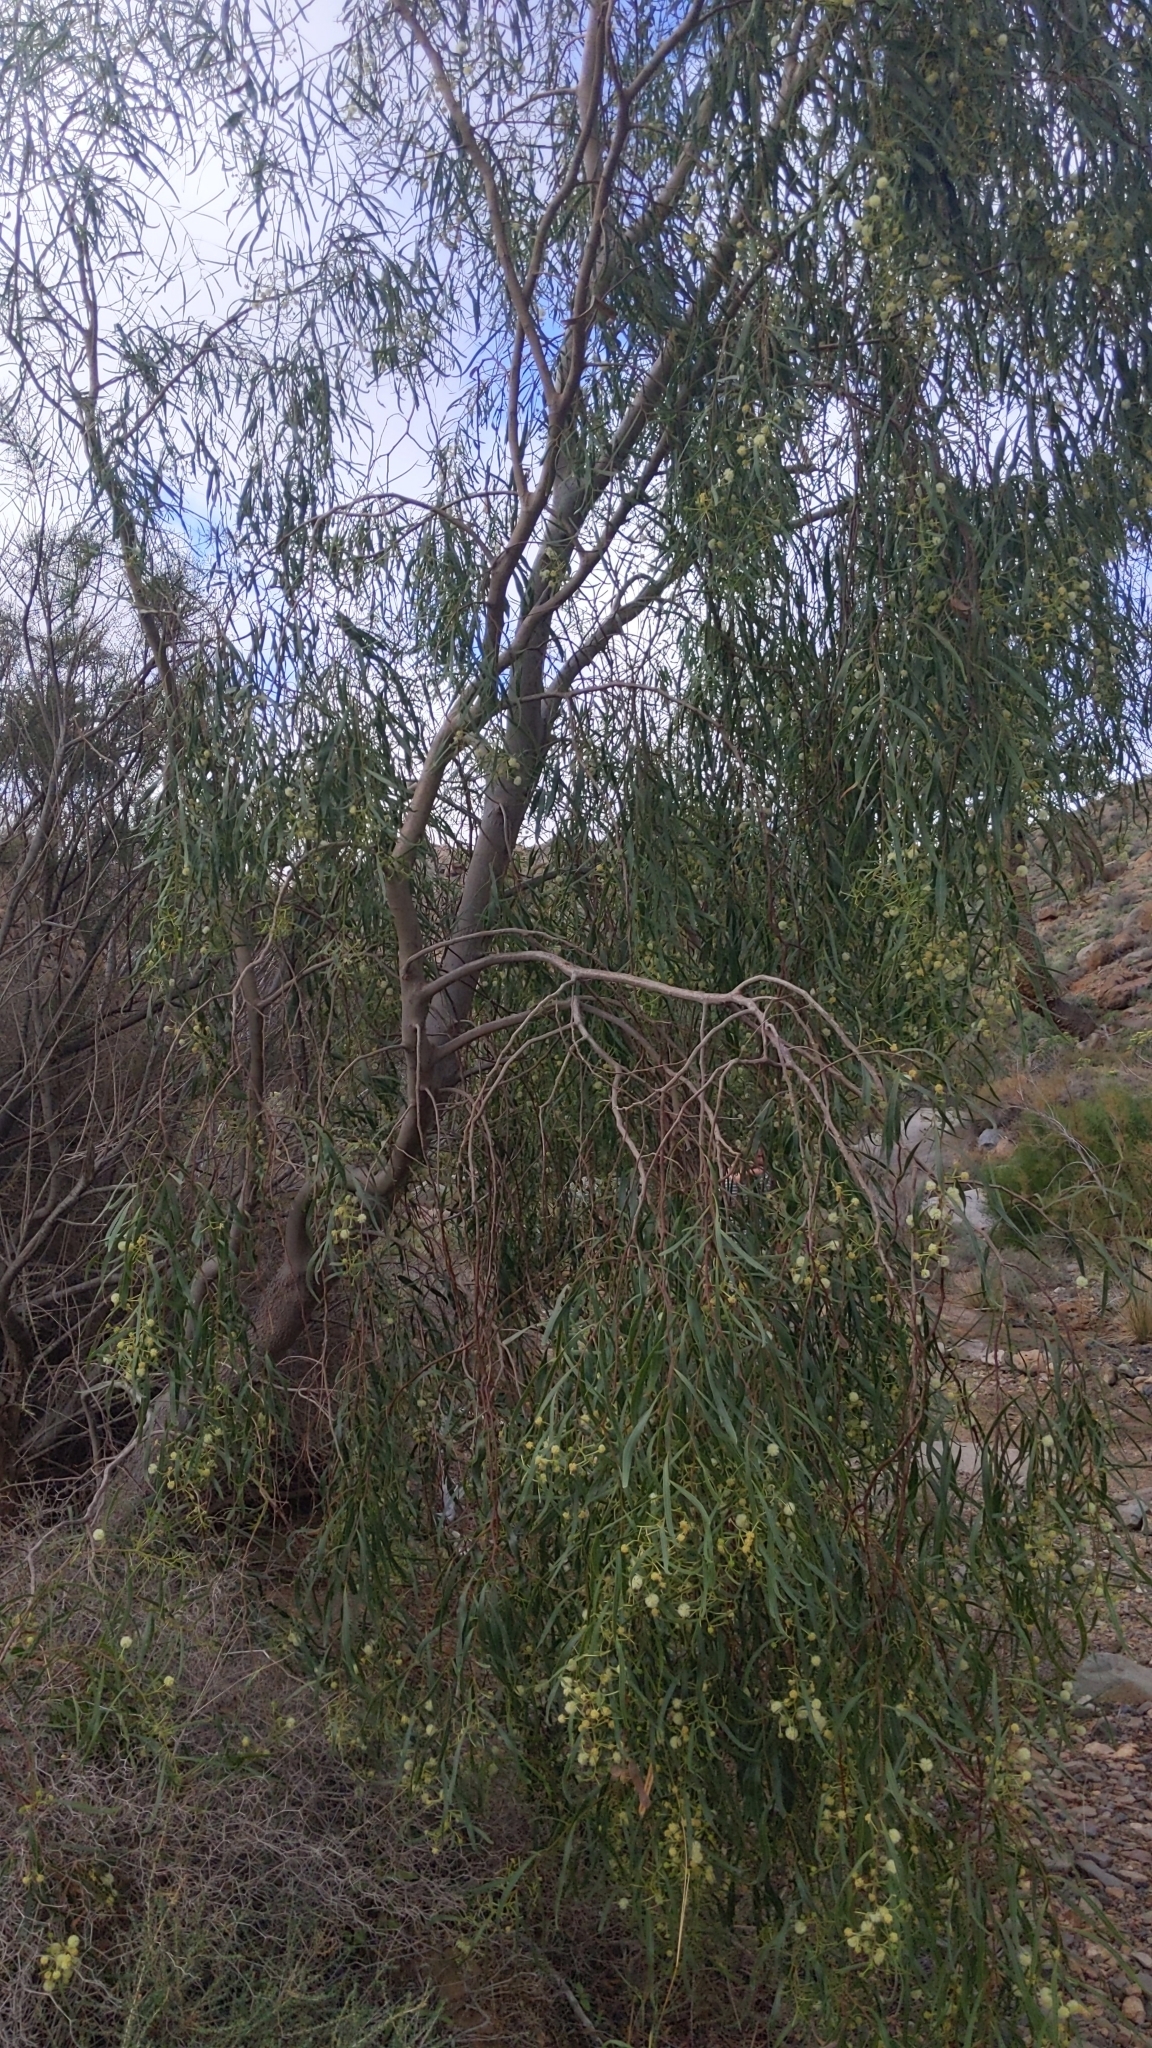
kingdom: Plantae
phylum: Tracheophyta
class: Magnoliopsida
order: Fabales
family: Fabaceae
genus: Acacia
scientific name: Acacia salicina
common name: Broughton willow wattle
